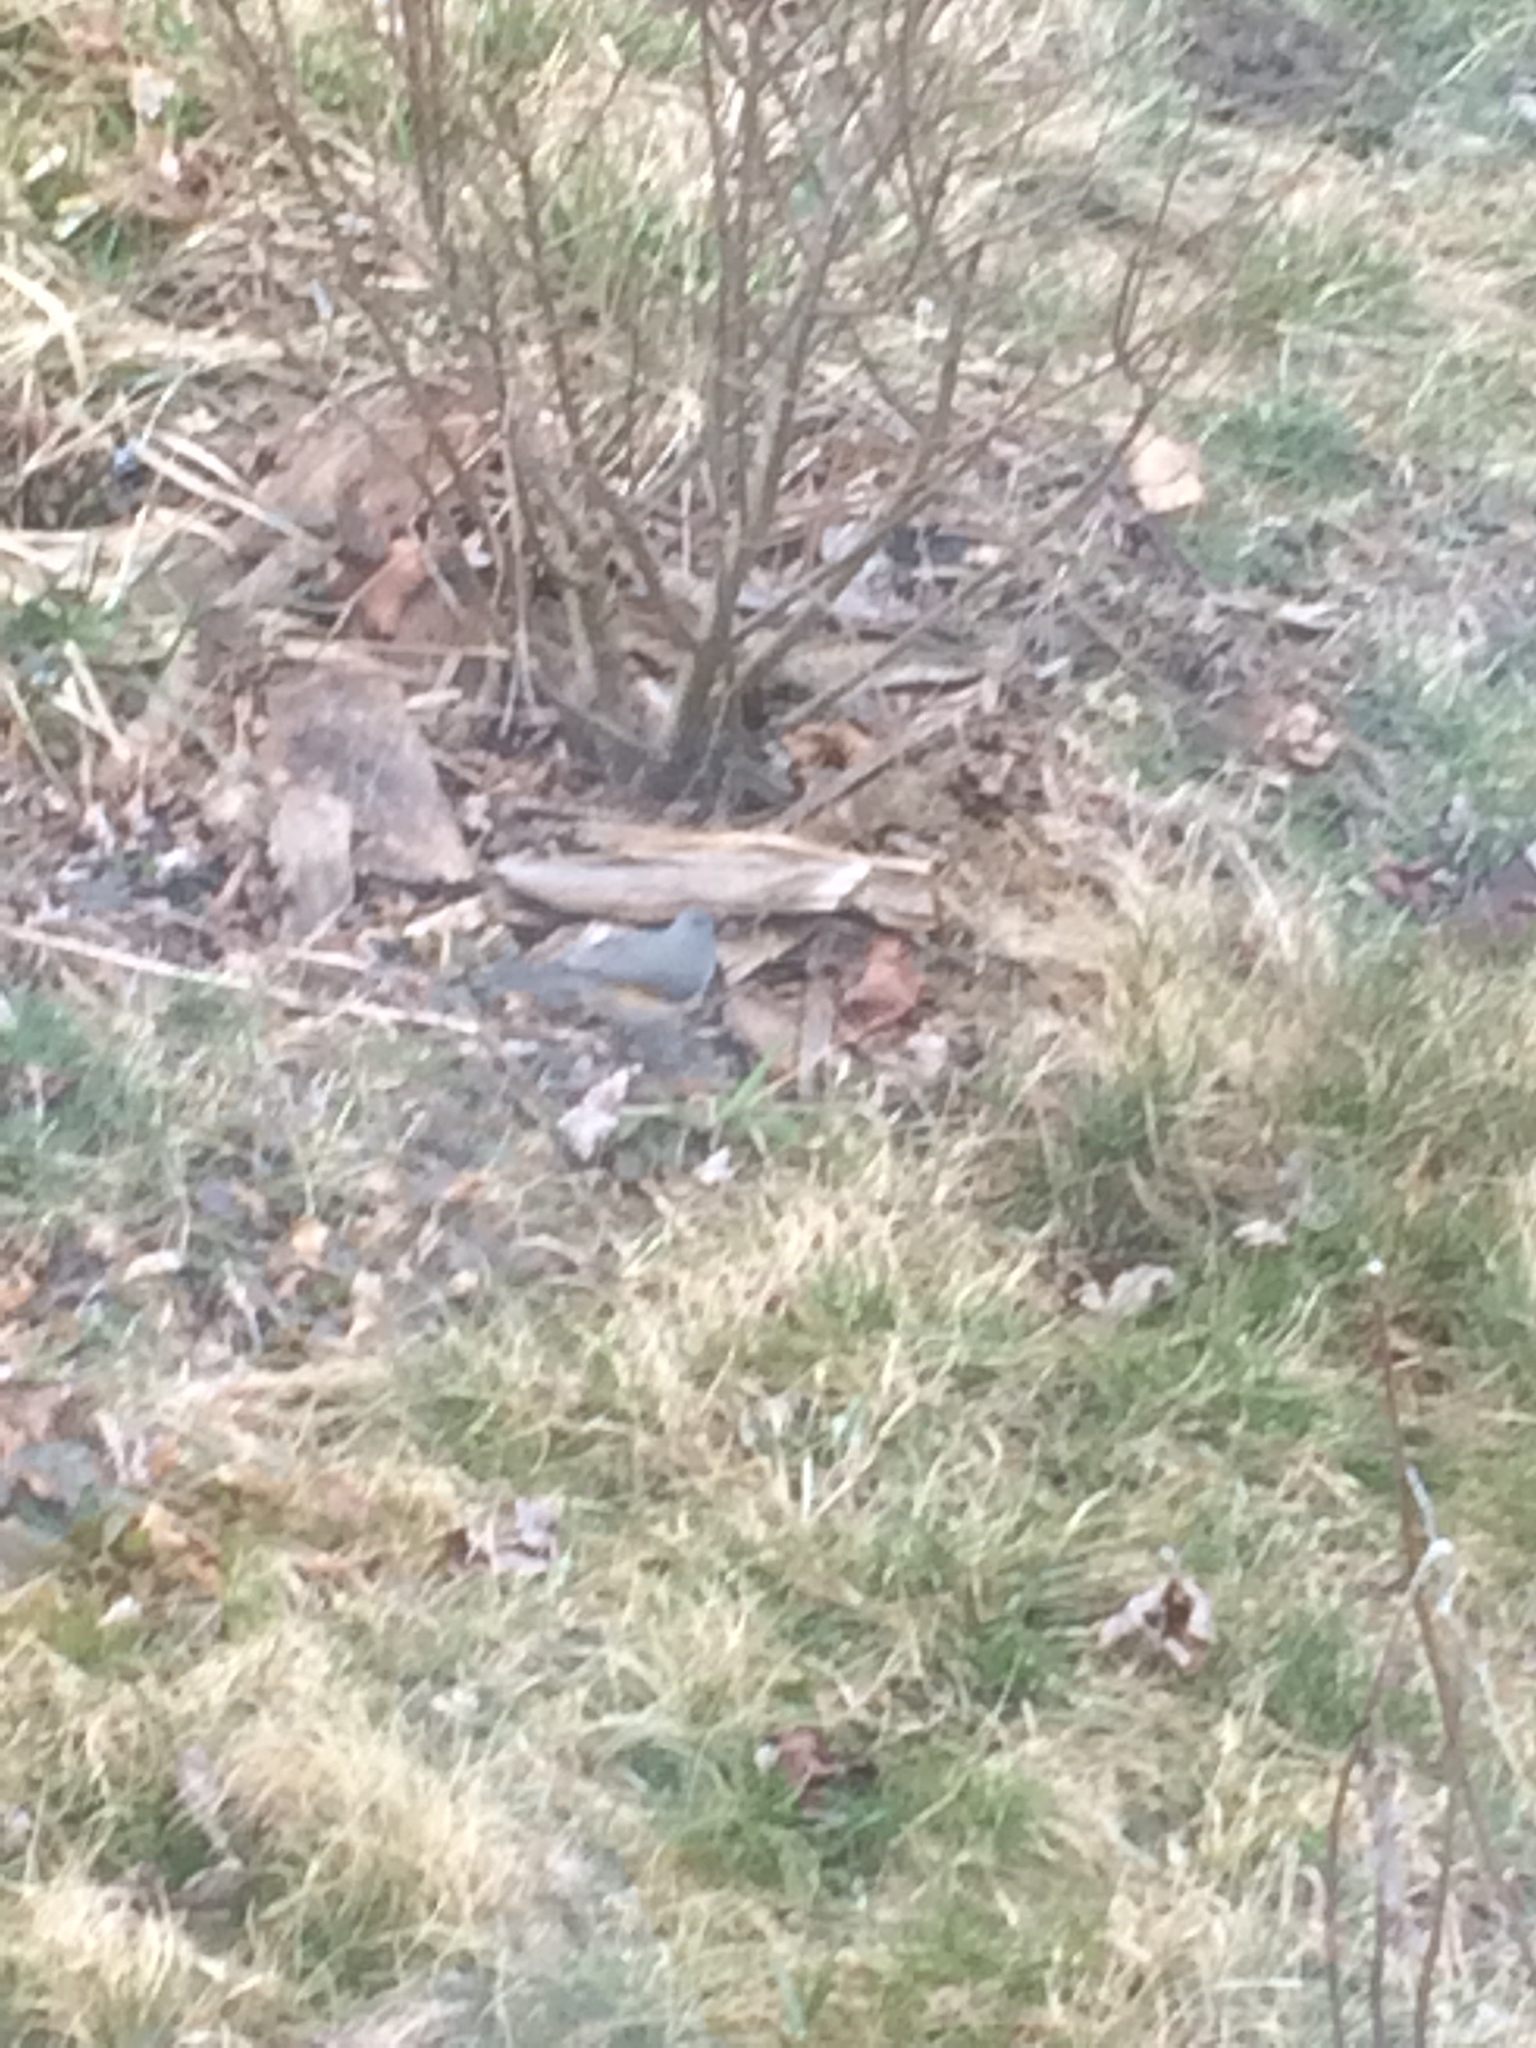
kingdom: Animalia
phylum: Chordata
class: Aves
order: Passeriformes
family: Paridae
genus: Baeolophus
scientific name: Baeolophus bicolor
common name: Tufted titmouse
